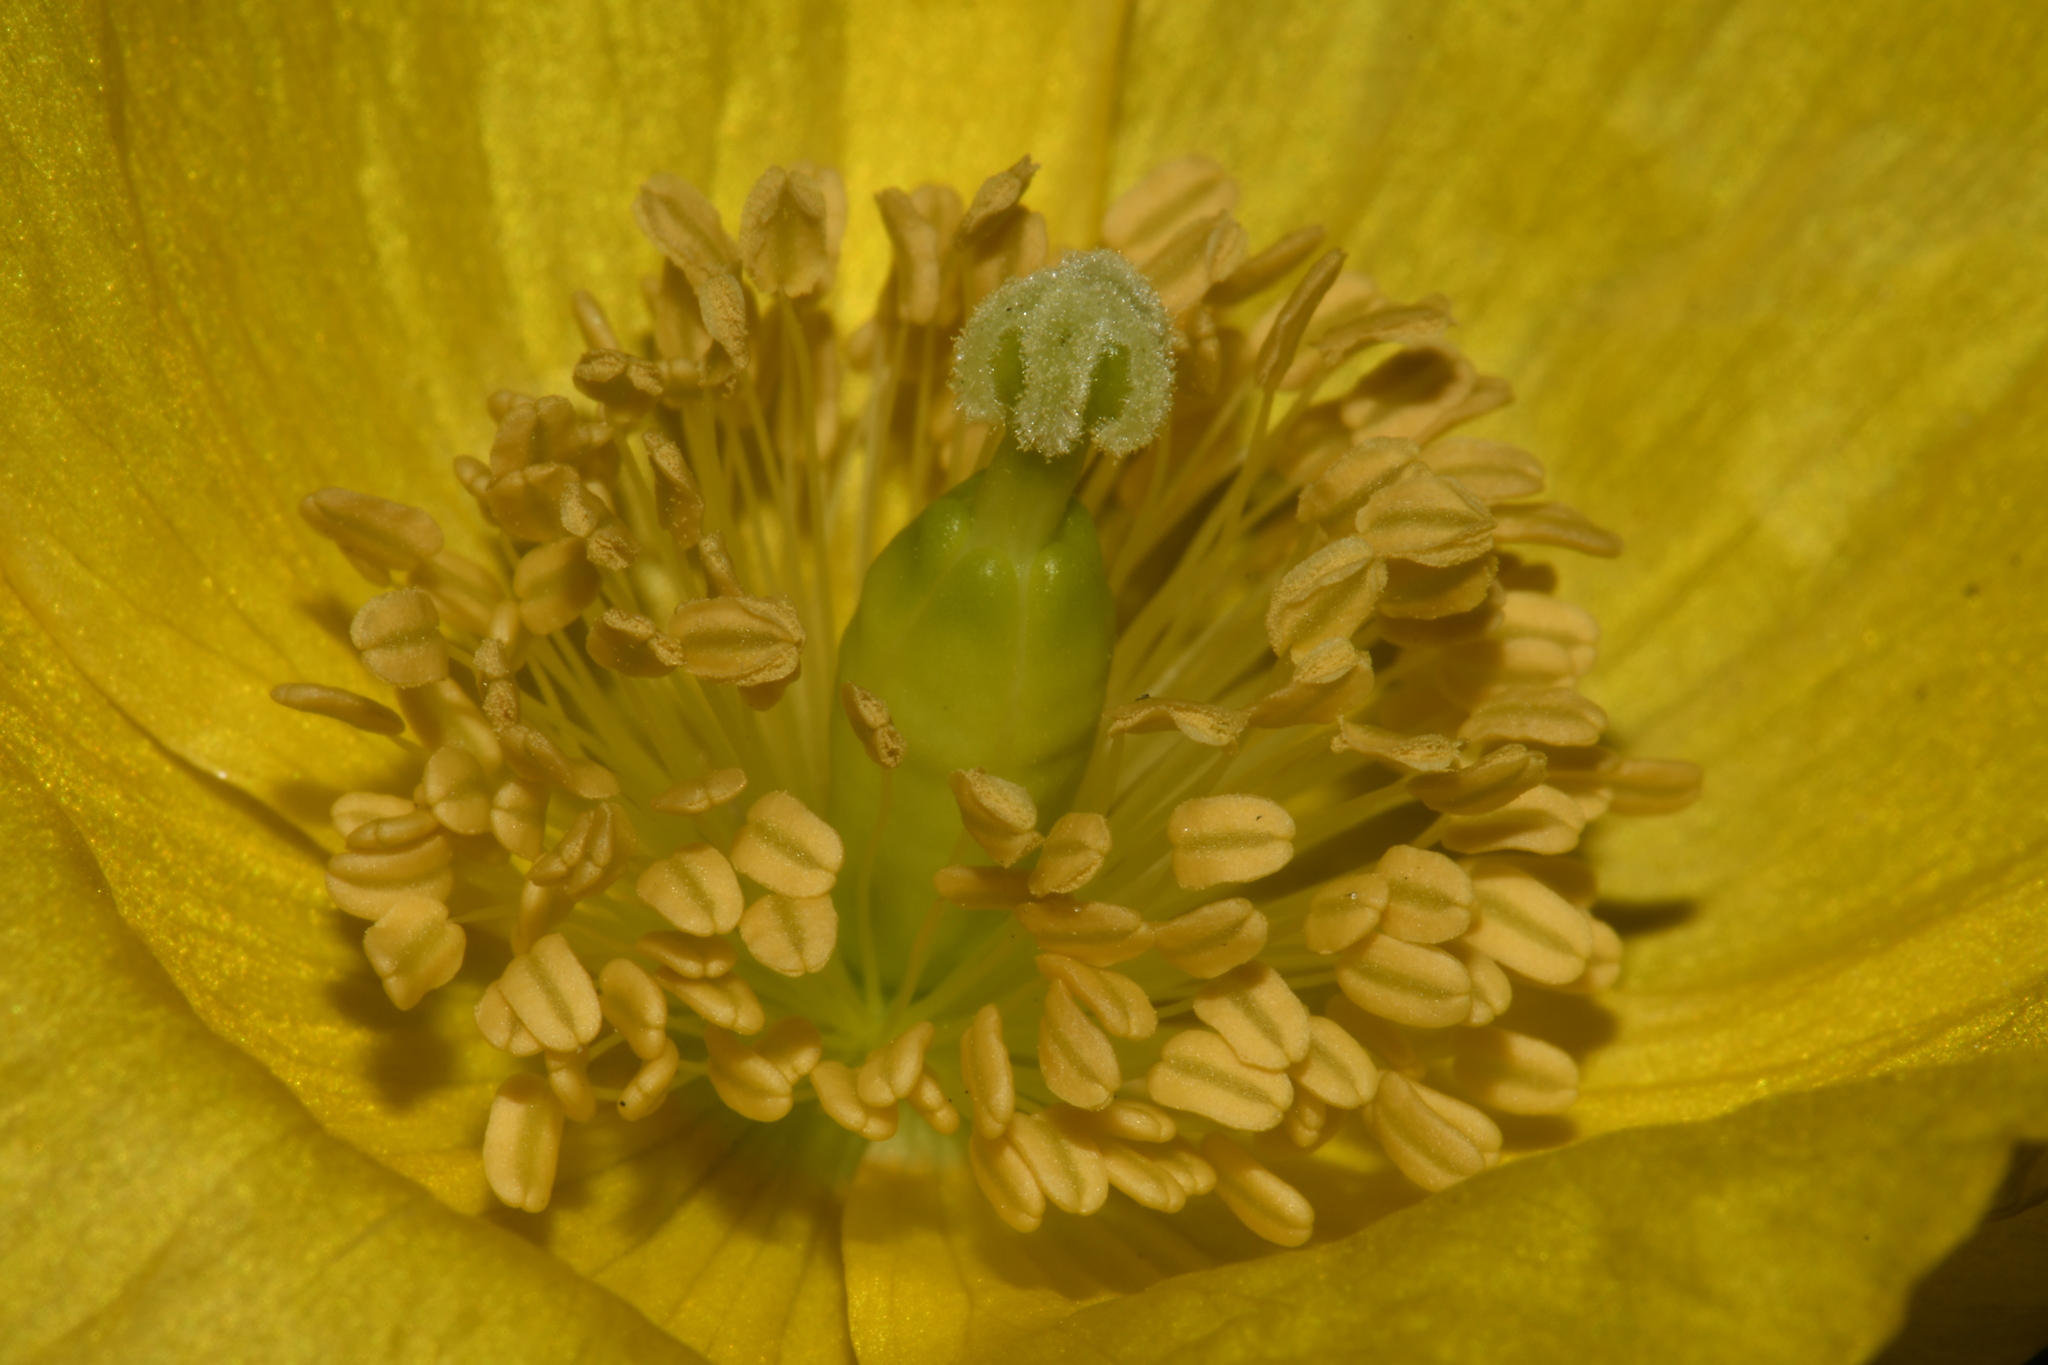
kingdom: Plantae
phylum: Tracheophyta
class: Magnoliopsida
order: Ranunculales
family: Papaveraceae
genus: Papaver
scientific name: Papaver cambricum
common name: Poppy
